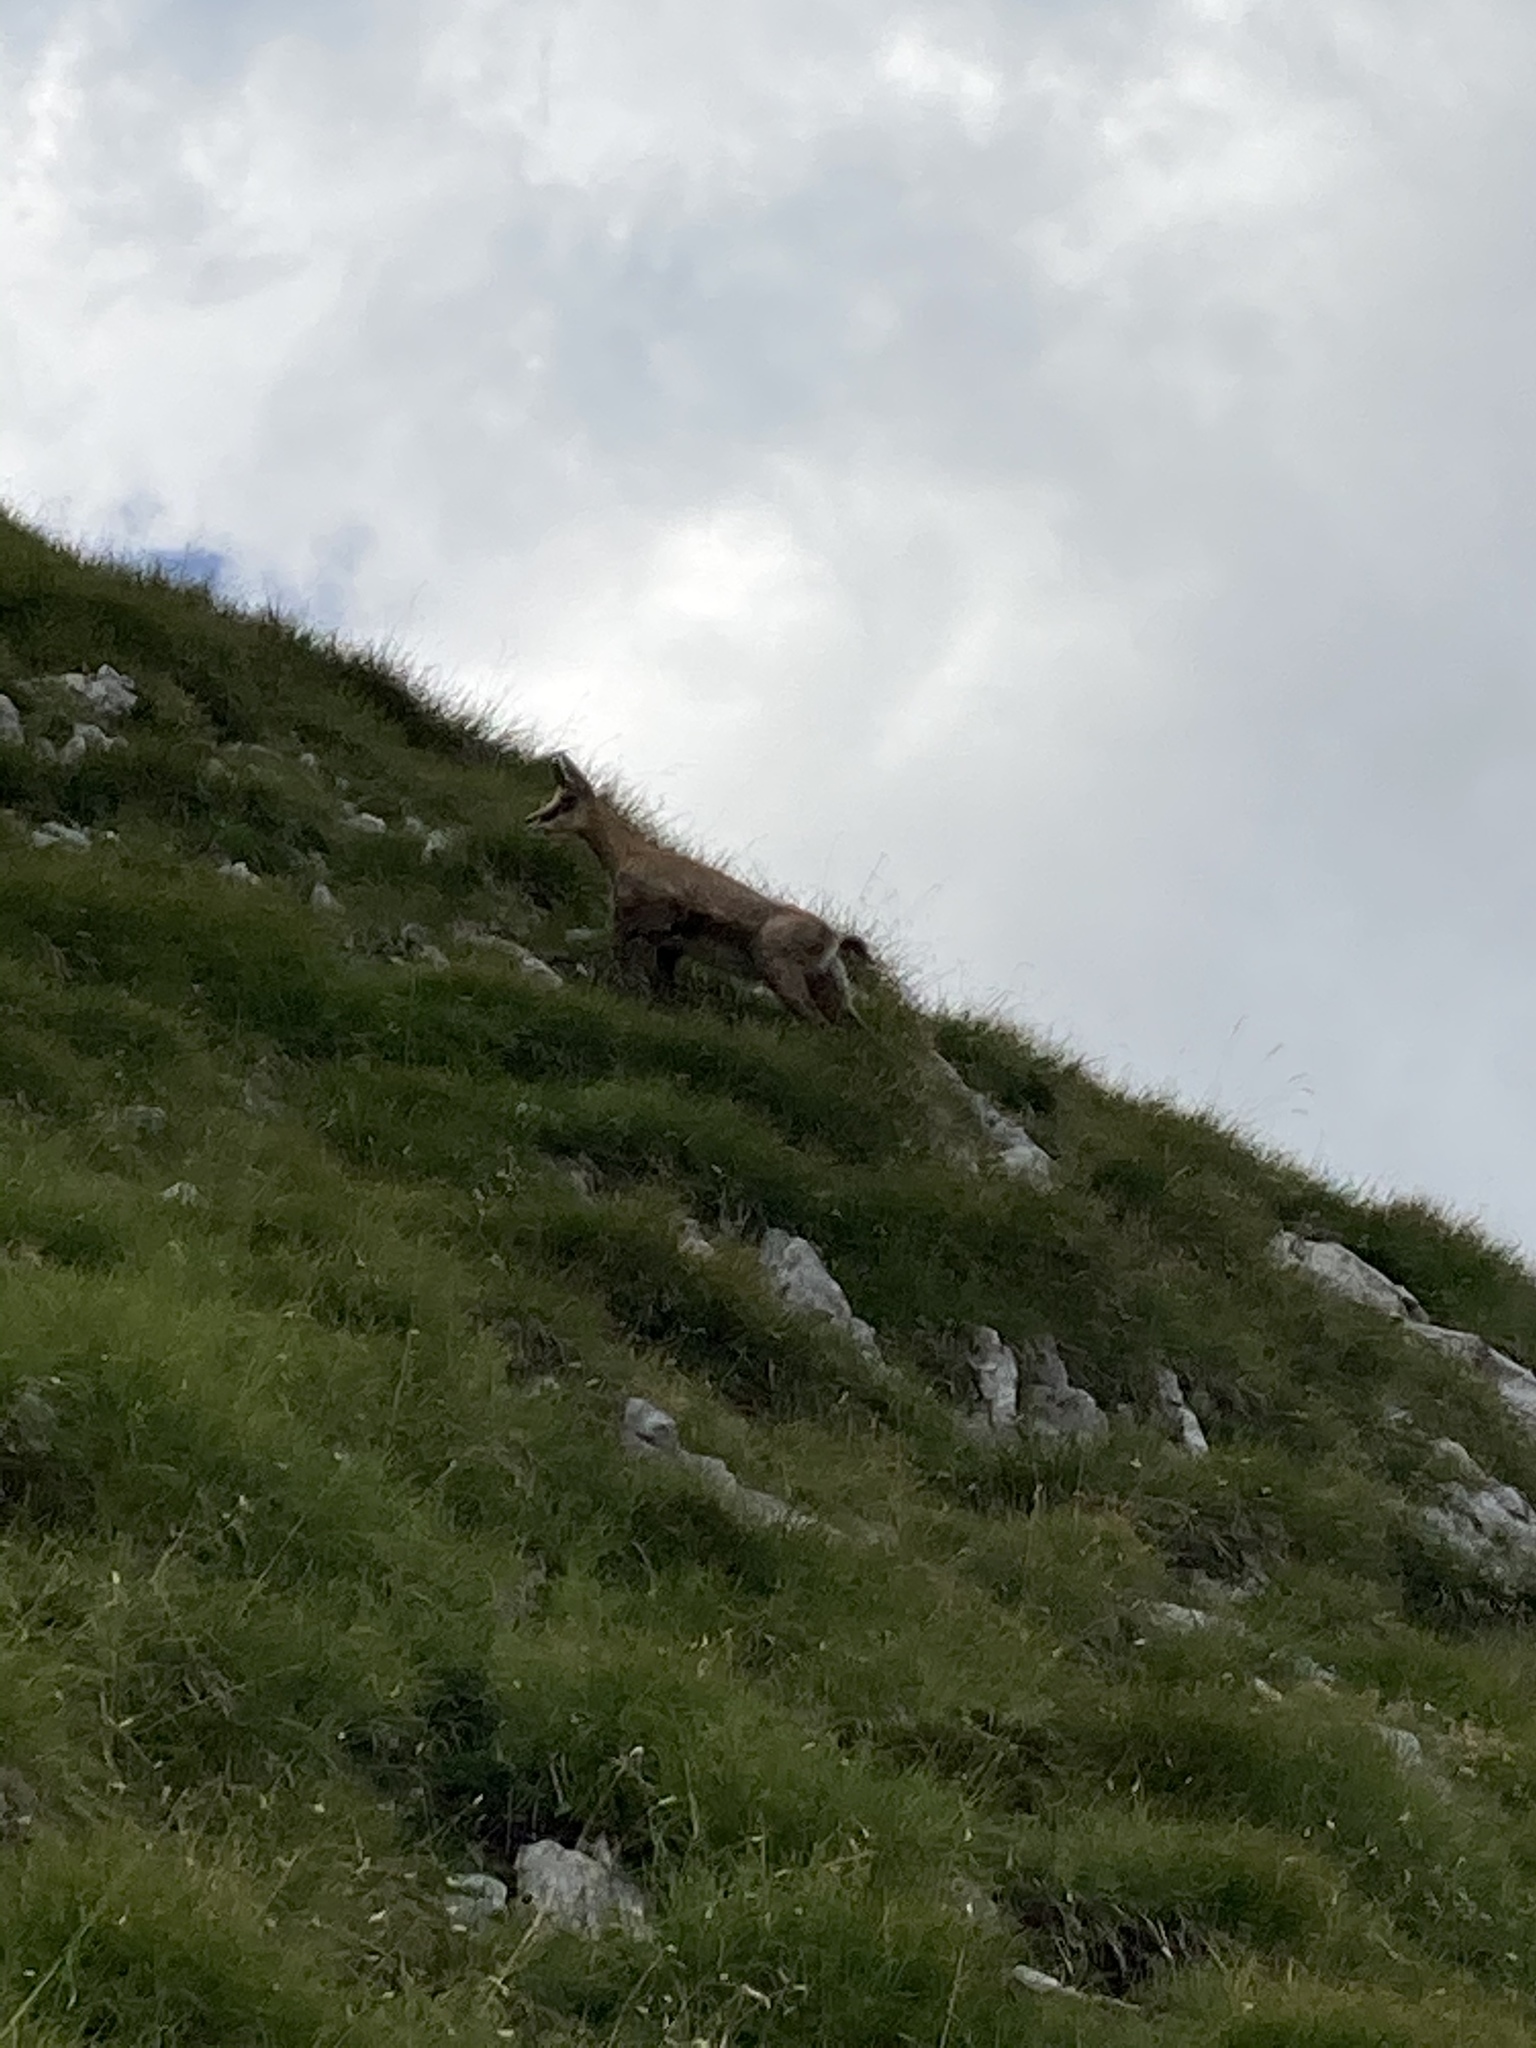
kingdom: Animalia
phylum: Chordata
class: Mammalia
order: Artiodactyla
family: Bovidae
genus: Rupicapra
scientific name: Rupicapra rupicapra
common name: Chamois
